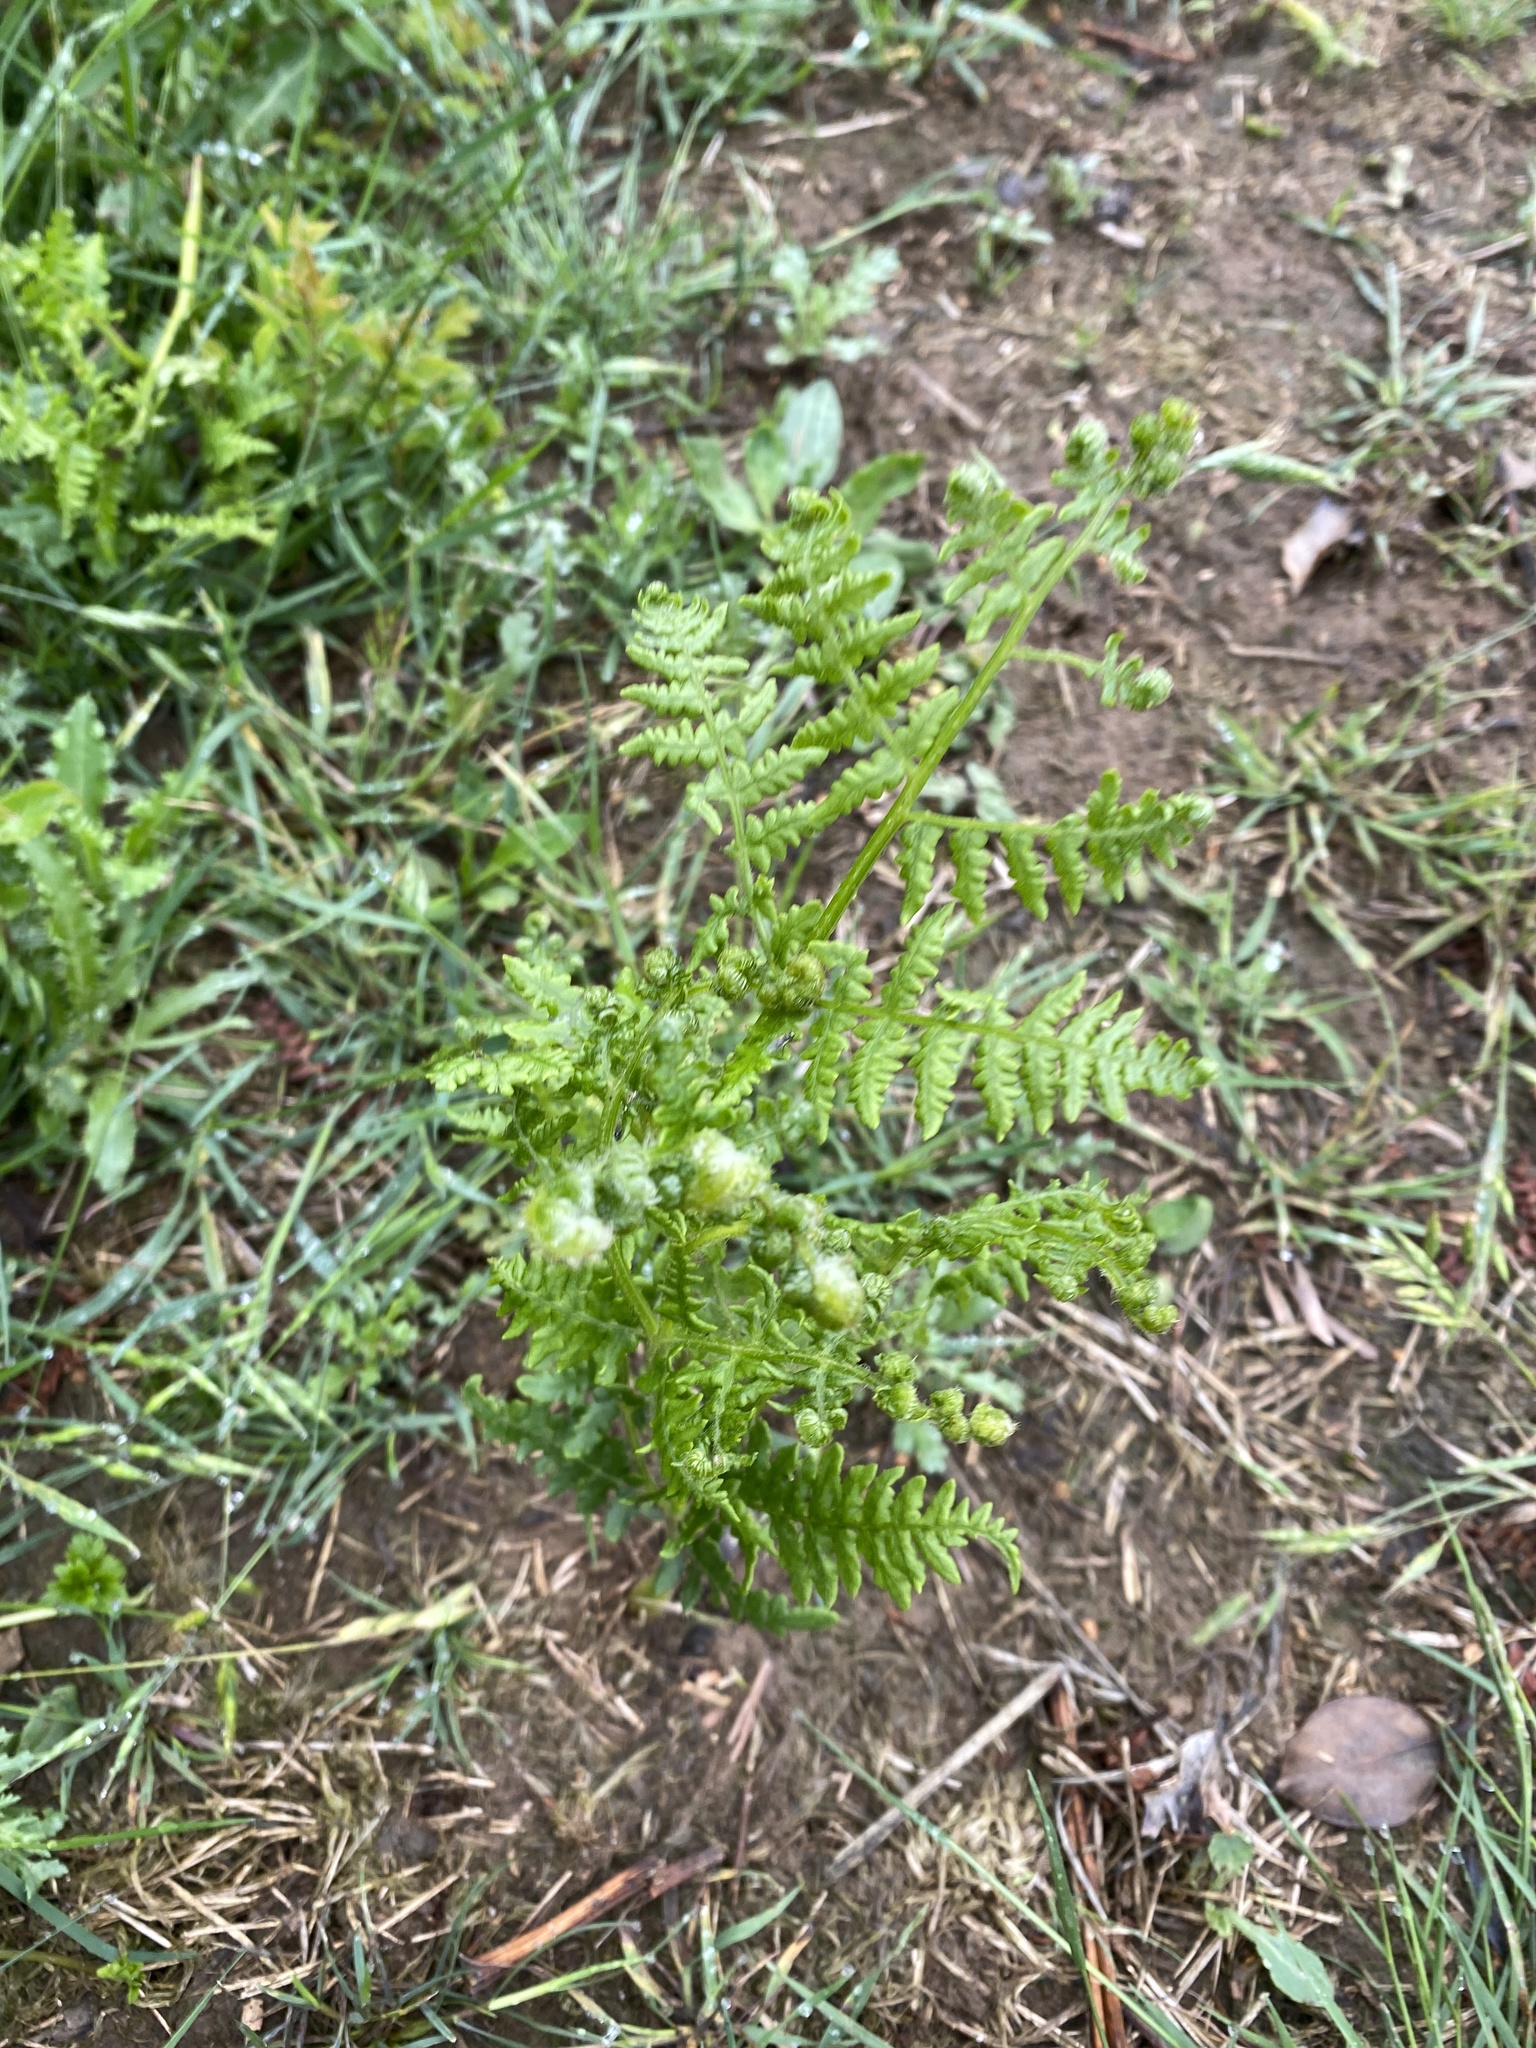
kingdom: Plantae
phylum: Tracheophyta
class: Polypodiopsida
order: Polypodiales
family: Dennstaedtiaceae
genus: Pteridium
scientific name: Pteridium aquilinum
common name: Bracken
